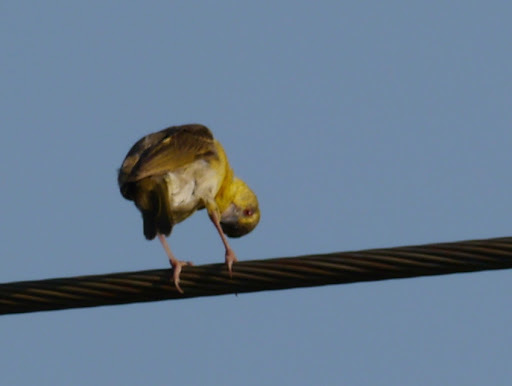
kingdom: Animalia
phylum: Chordata
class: Aves
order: Passeriformes
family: Ploceidae
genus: Ploceus
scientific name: Ploceus cucullatus
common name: Village weaver
